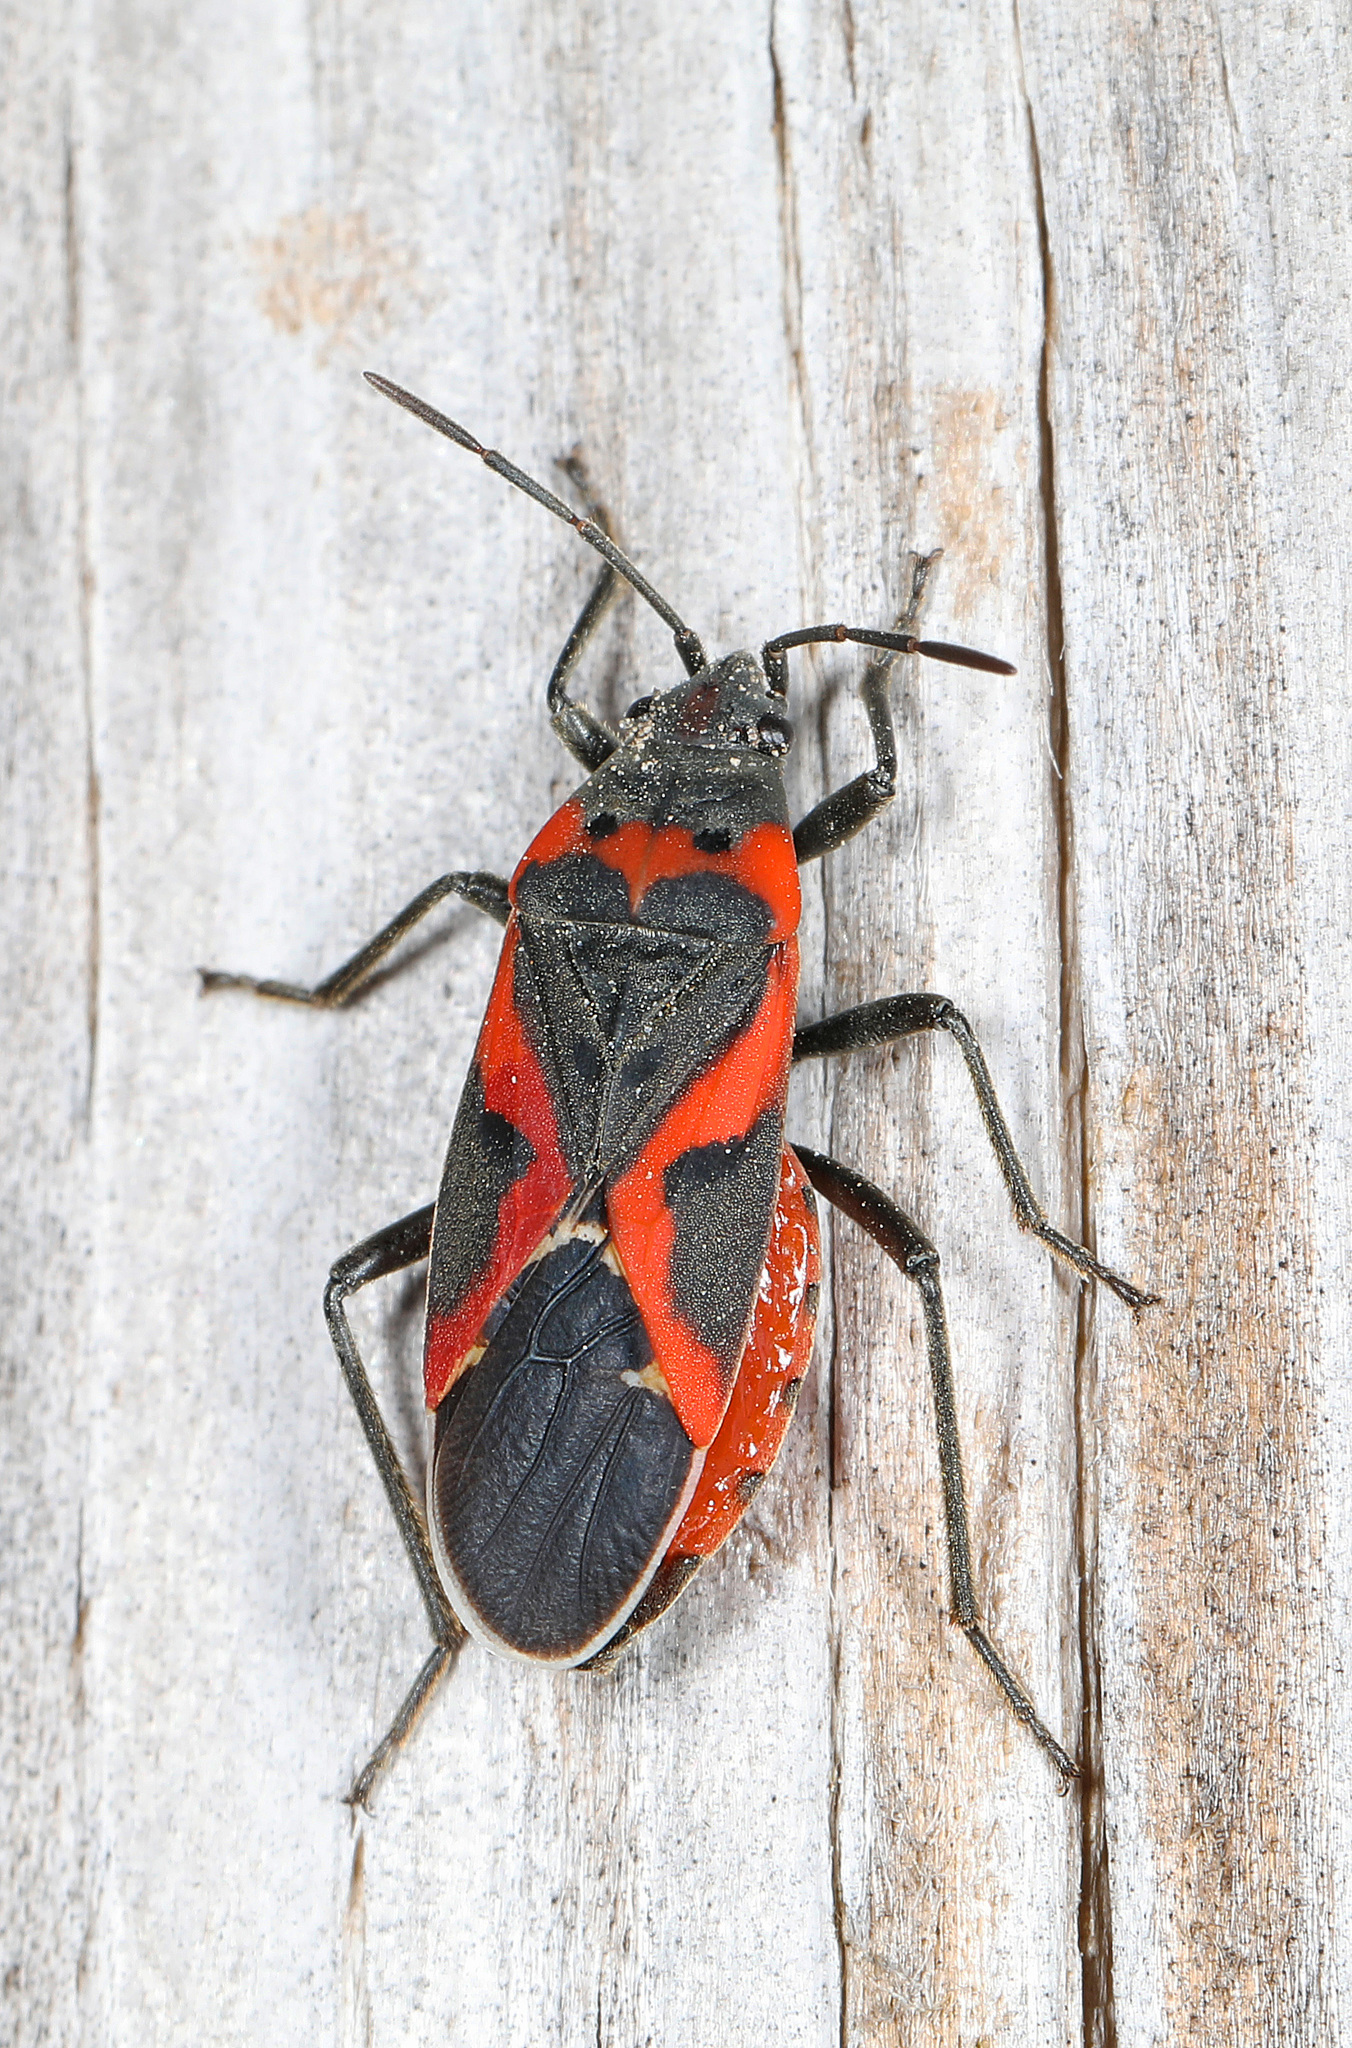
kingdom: Animalia
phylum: Arthropoda
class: Insecta
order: Hemiptera
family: Lygaeidae
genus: Lygaeus
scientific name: Lygaeus kalmii
